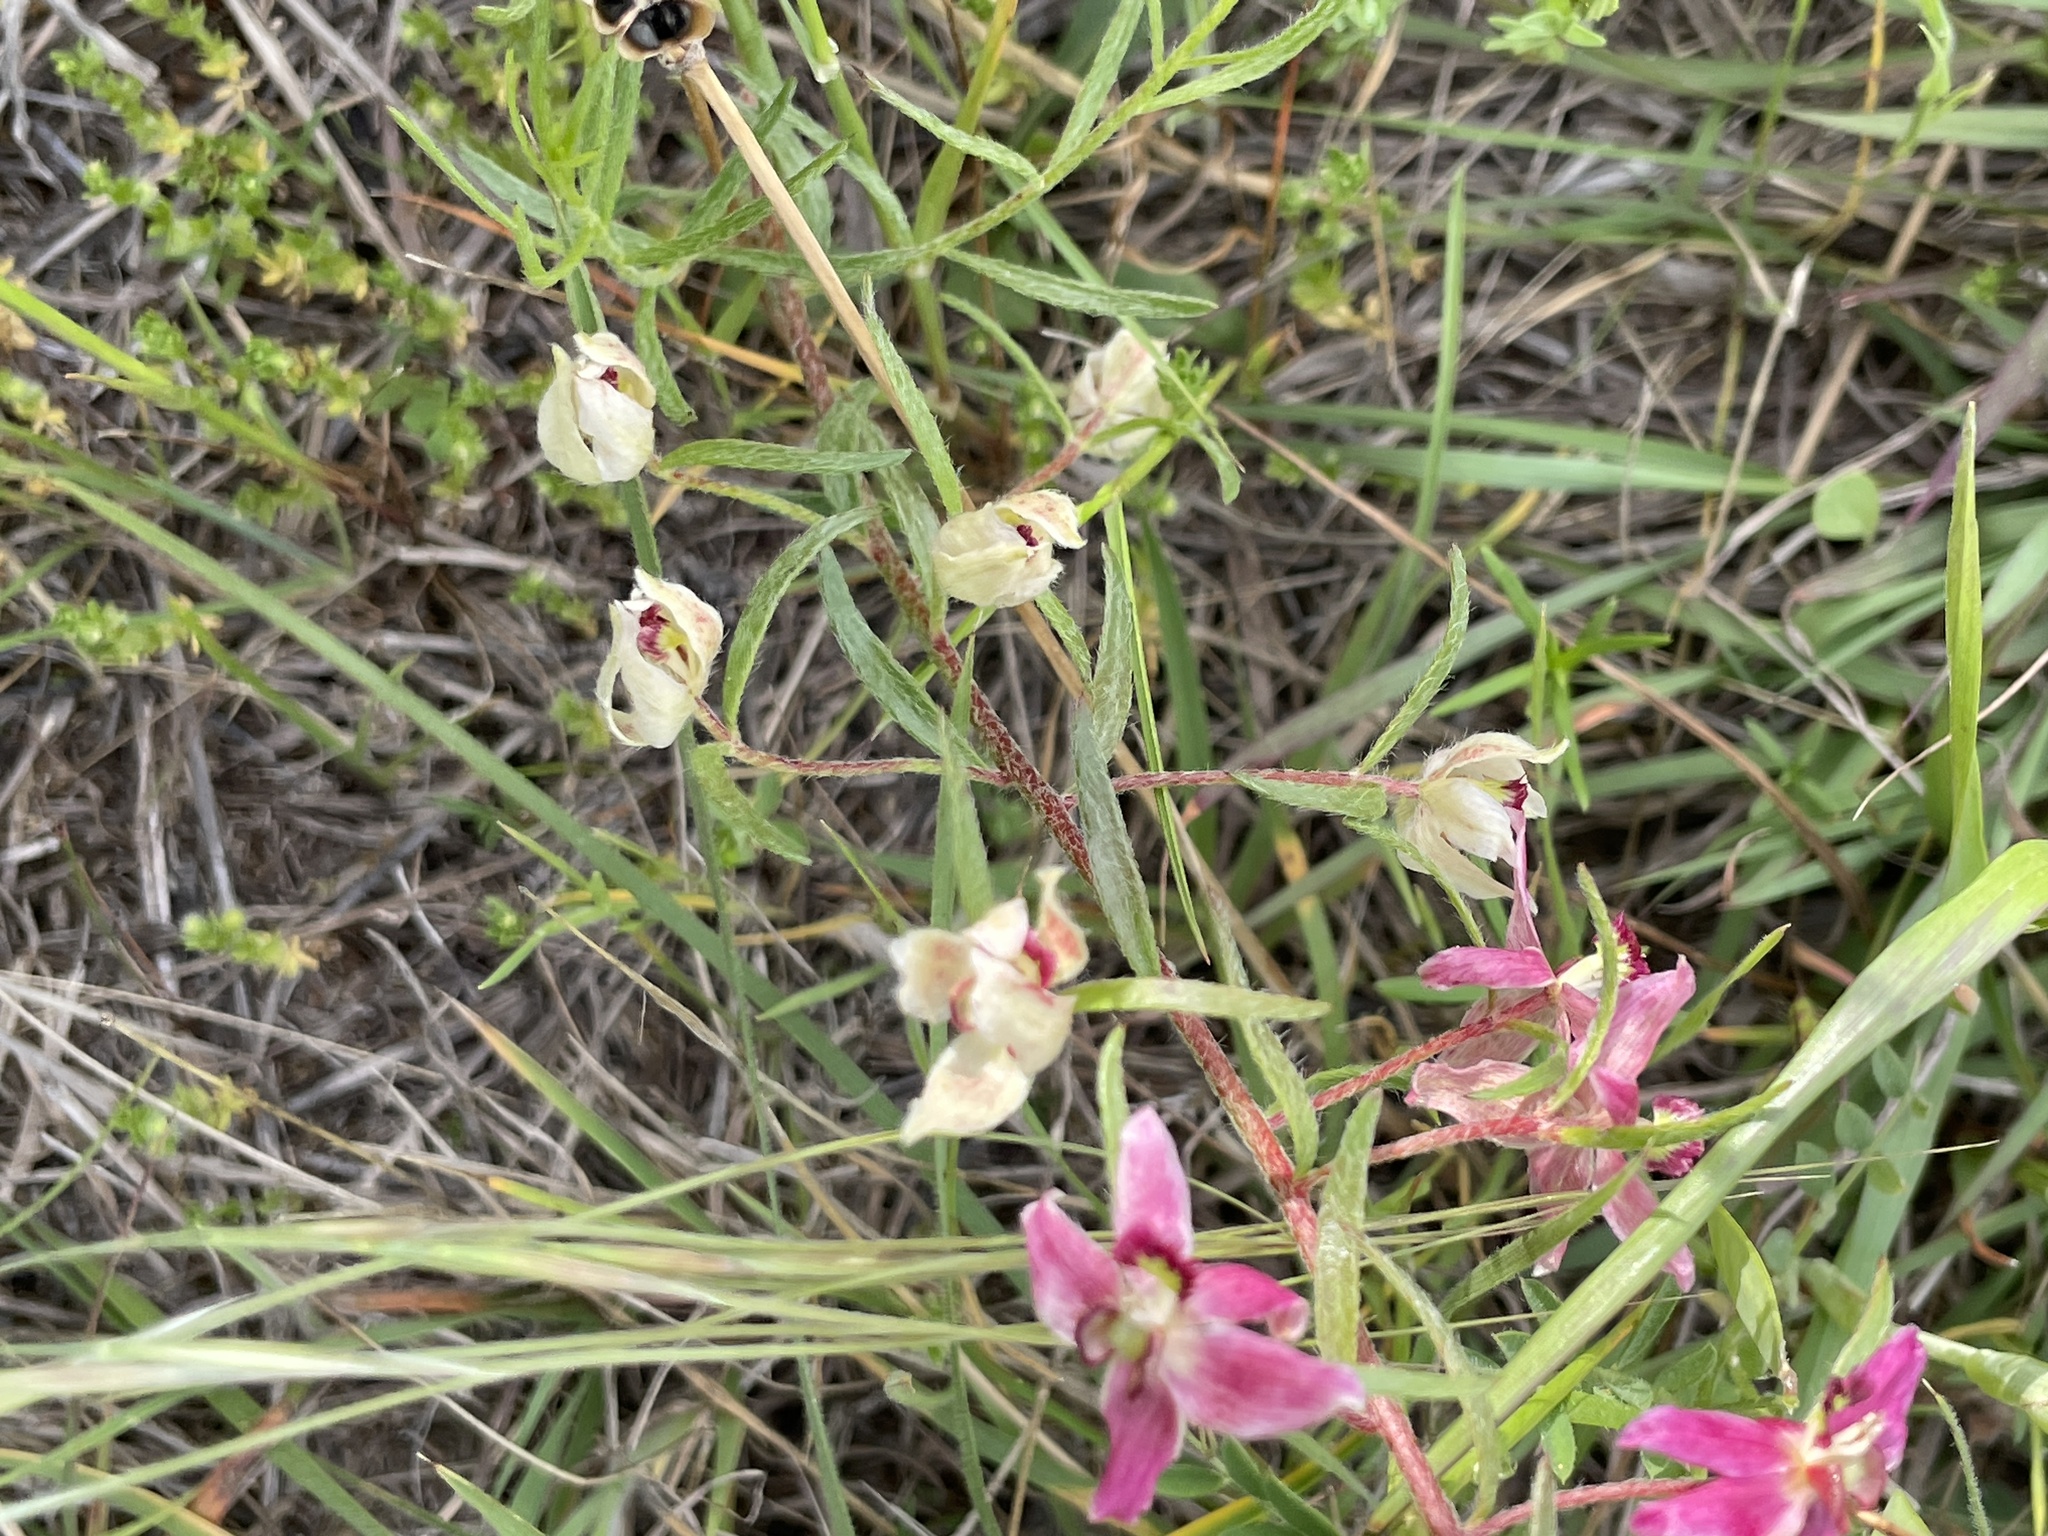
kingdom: Plantae
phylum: Tracheophyta
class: Magnoliopsida
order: Zygophyllales
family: Krameriaceae
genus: Krameria
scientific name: Krameria lanceolata
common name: Ratany
